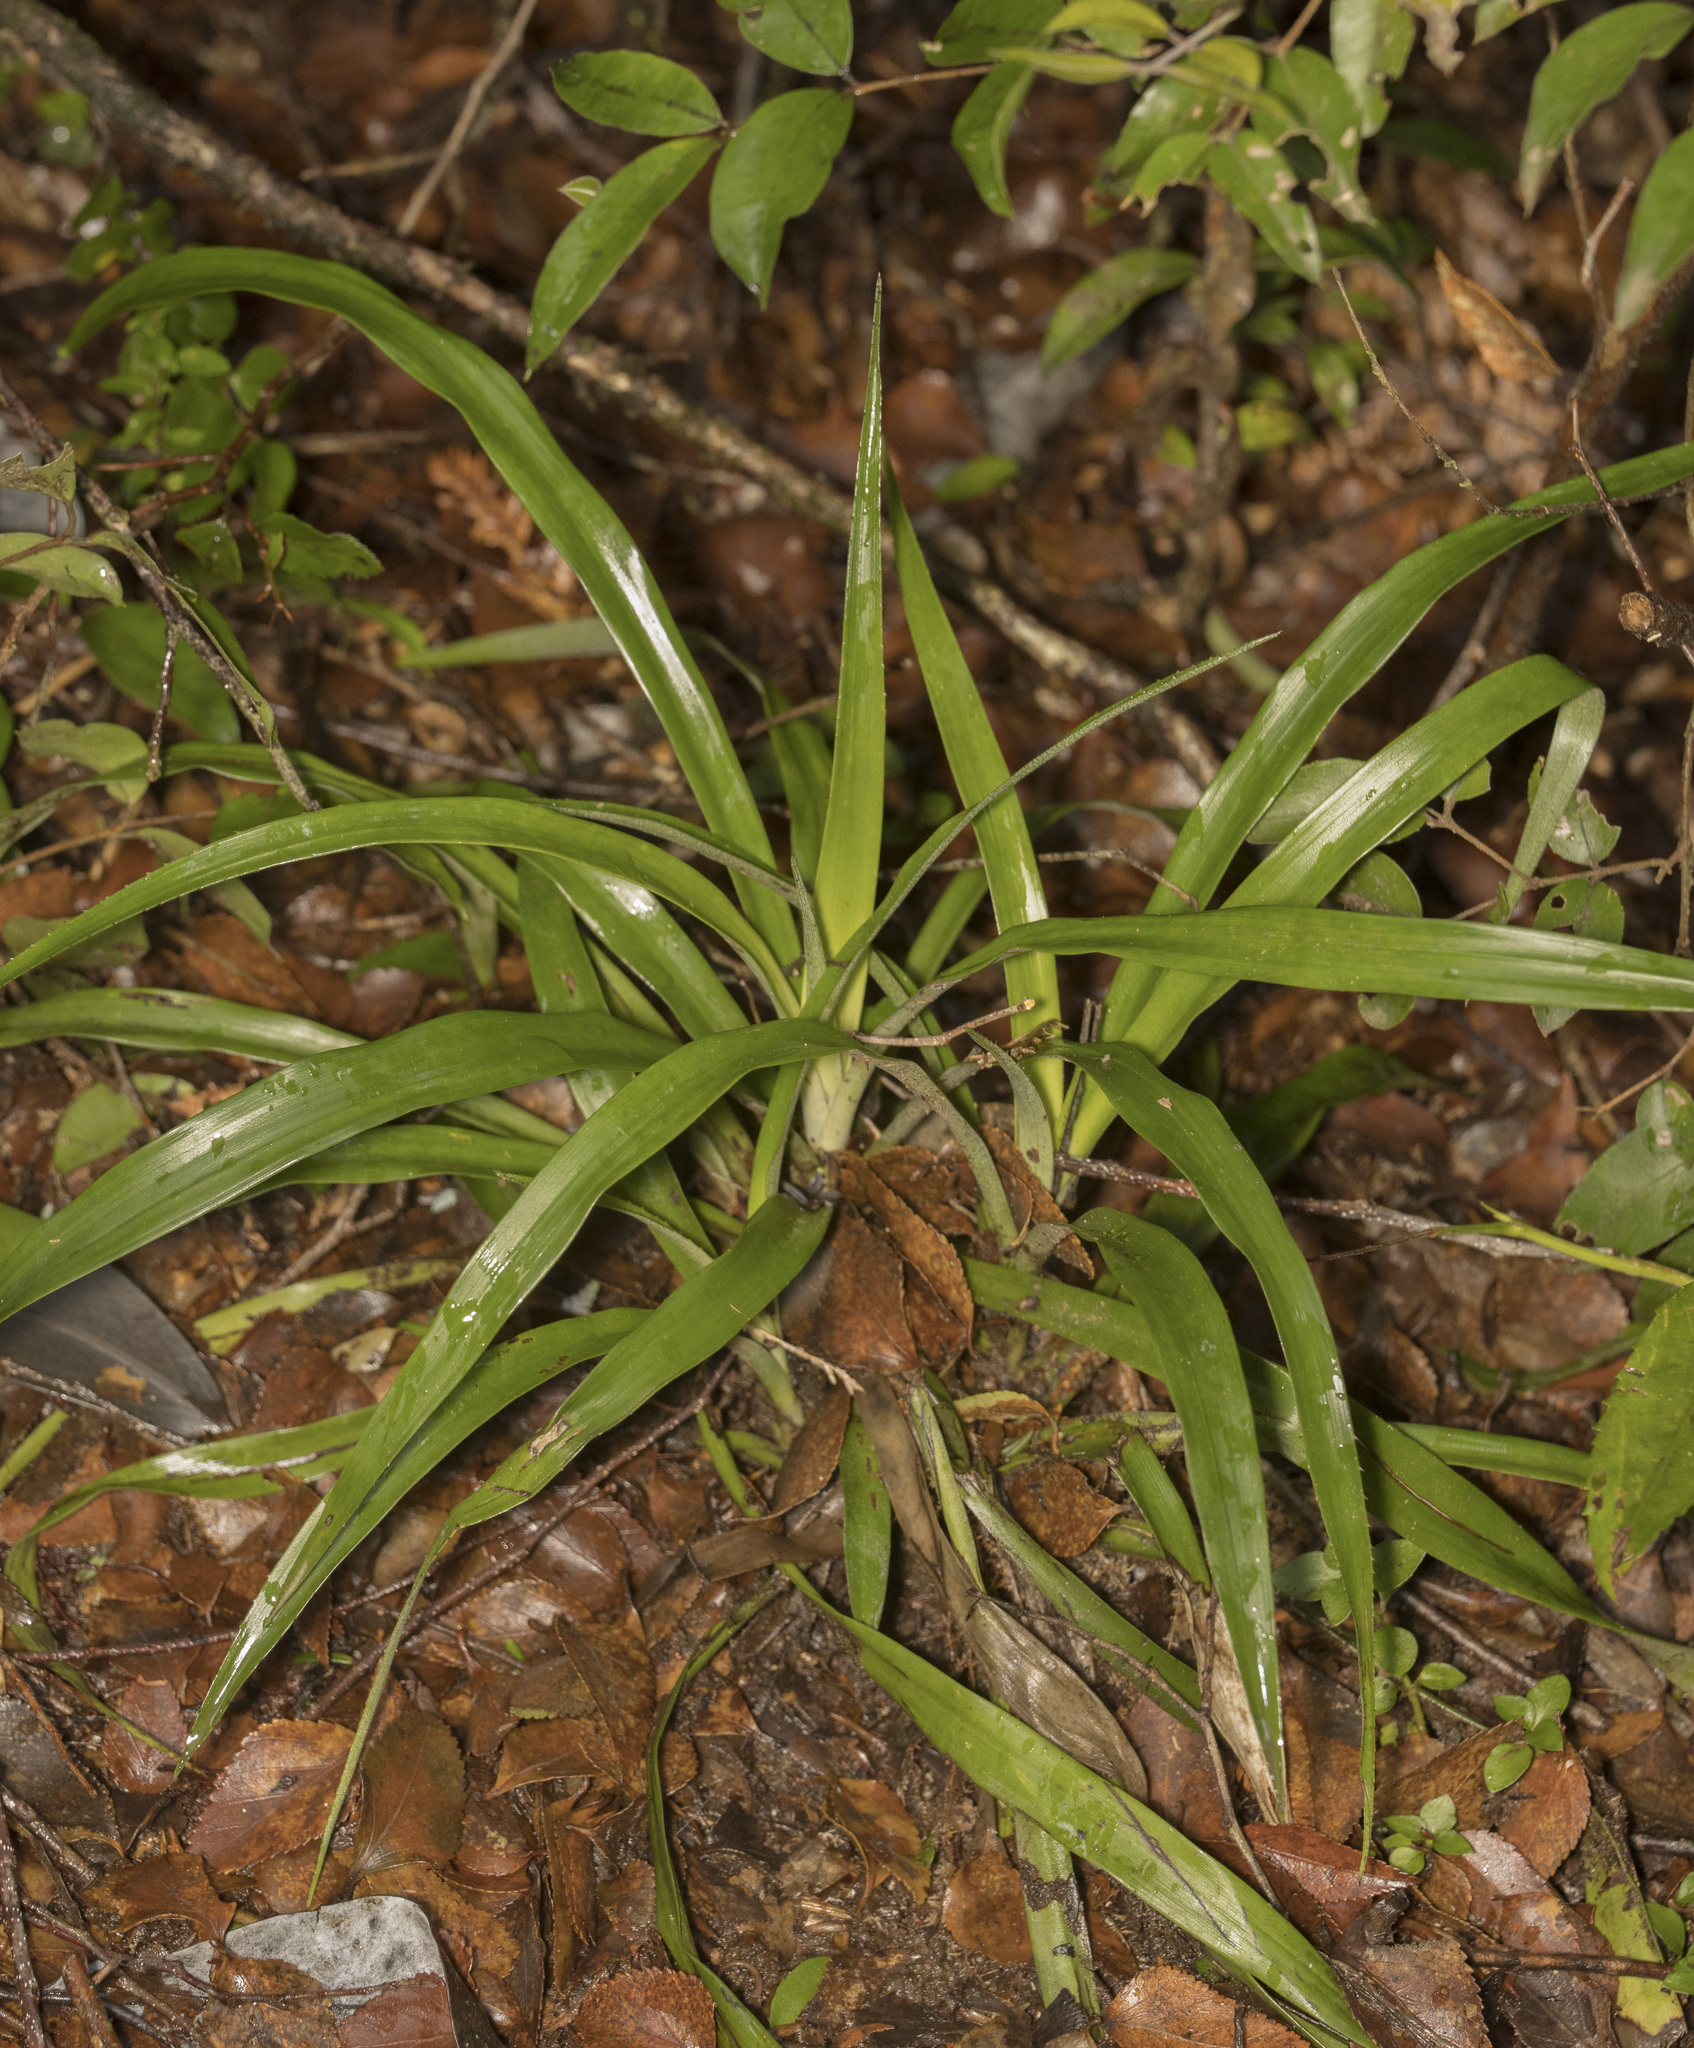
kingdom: Plantae
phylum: Tracheophyta
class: Liliopsida
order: Poales
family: Bromeliaceae
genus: Greigia
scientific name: Greigia pearcei
